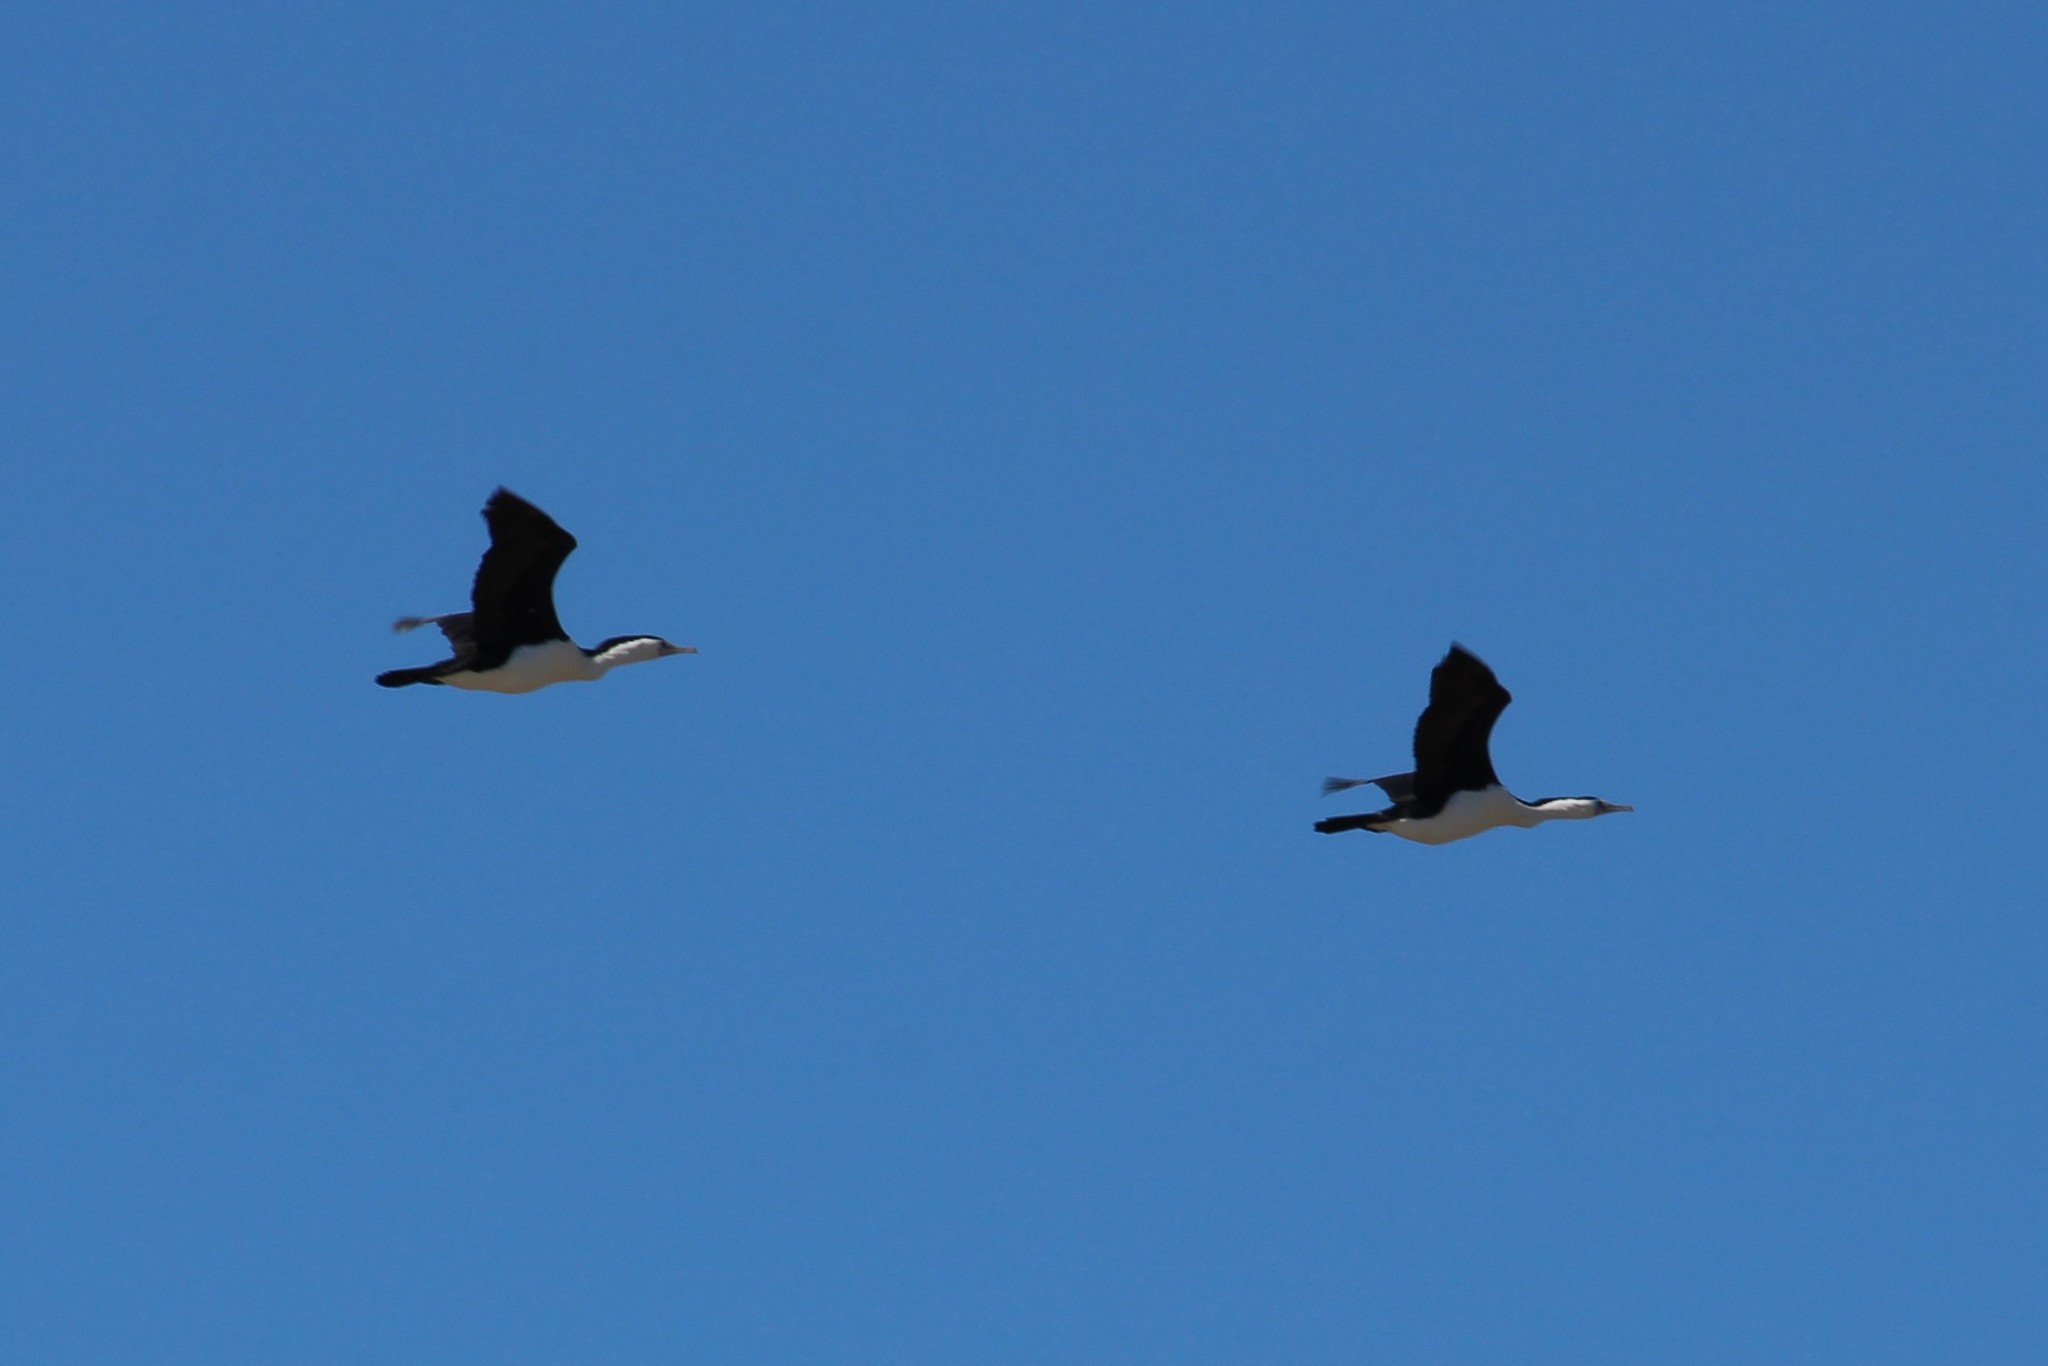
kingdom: Animalia
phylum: Chordata
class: Aves
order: Suliformes
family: Phalacrocoracidae
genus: Phalacrocorax
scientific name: Phalacrocorax varius
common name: Pied cormorant
